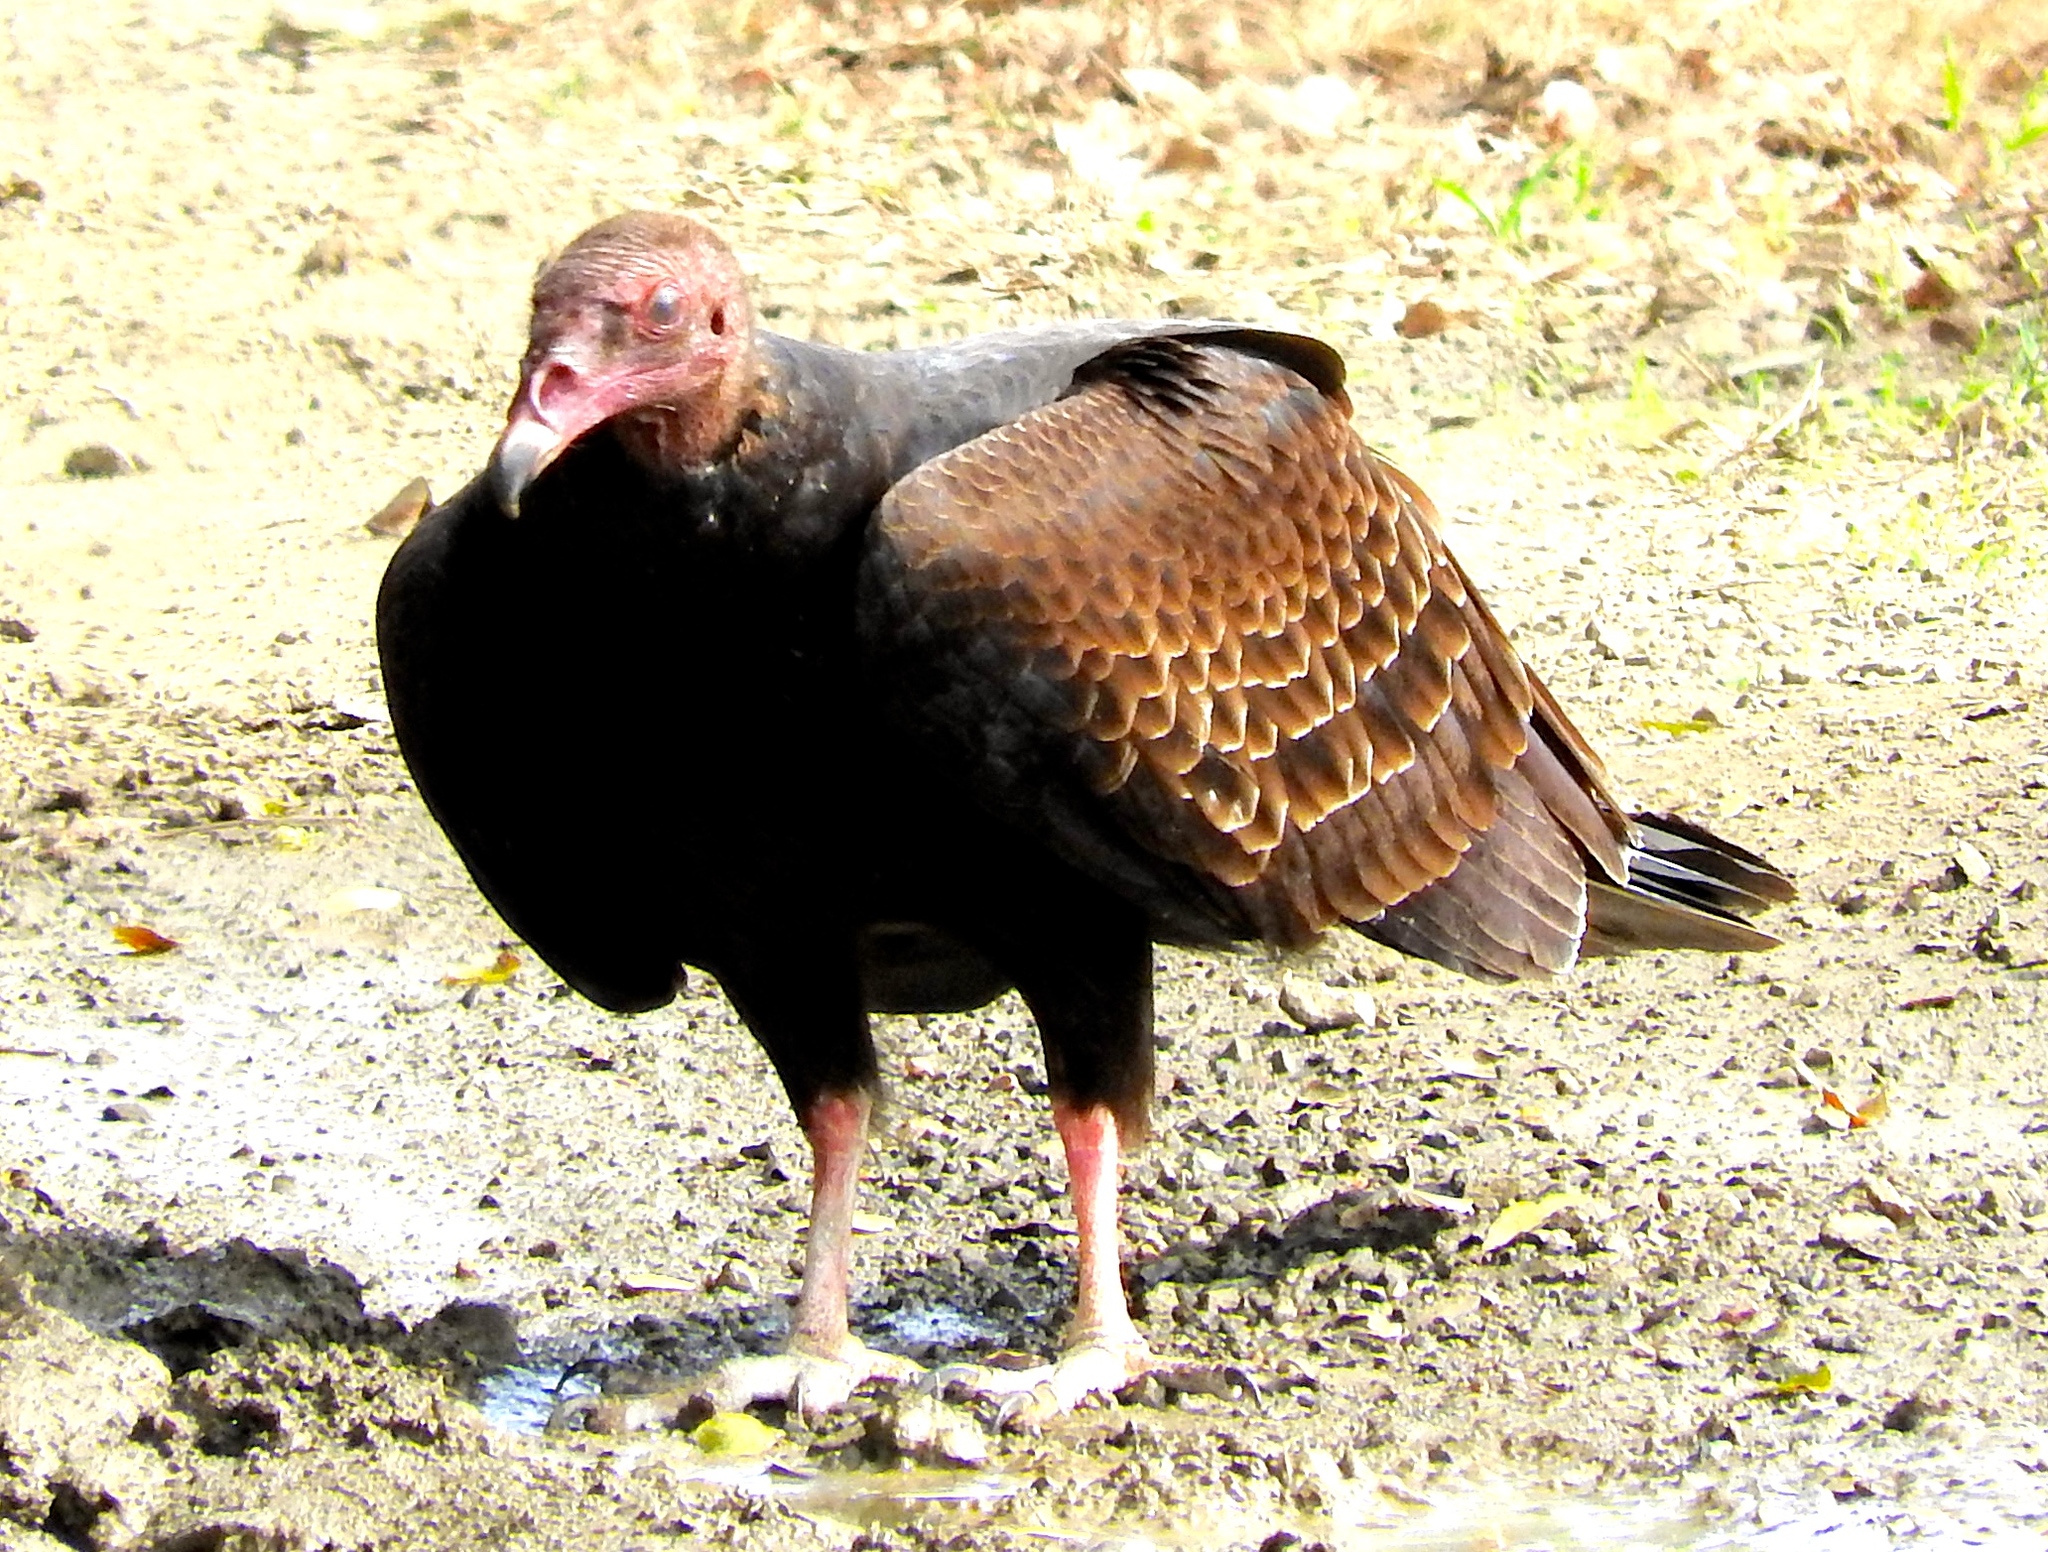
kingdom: Animalia
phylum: Chordata
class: Aves
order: Accipitriformes
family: Cathartidae
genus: Cathartes
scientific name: Cathartes aura
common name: Turkey vulture
